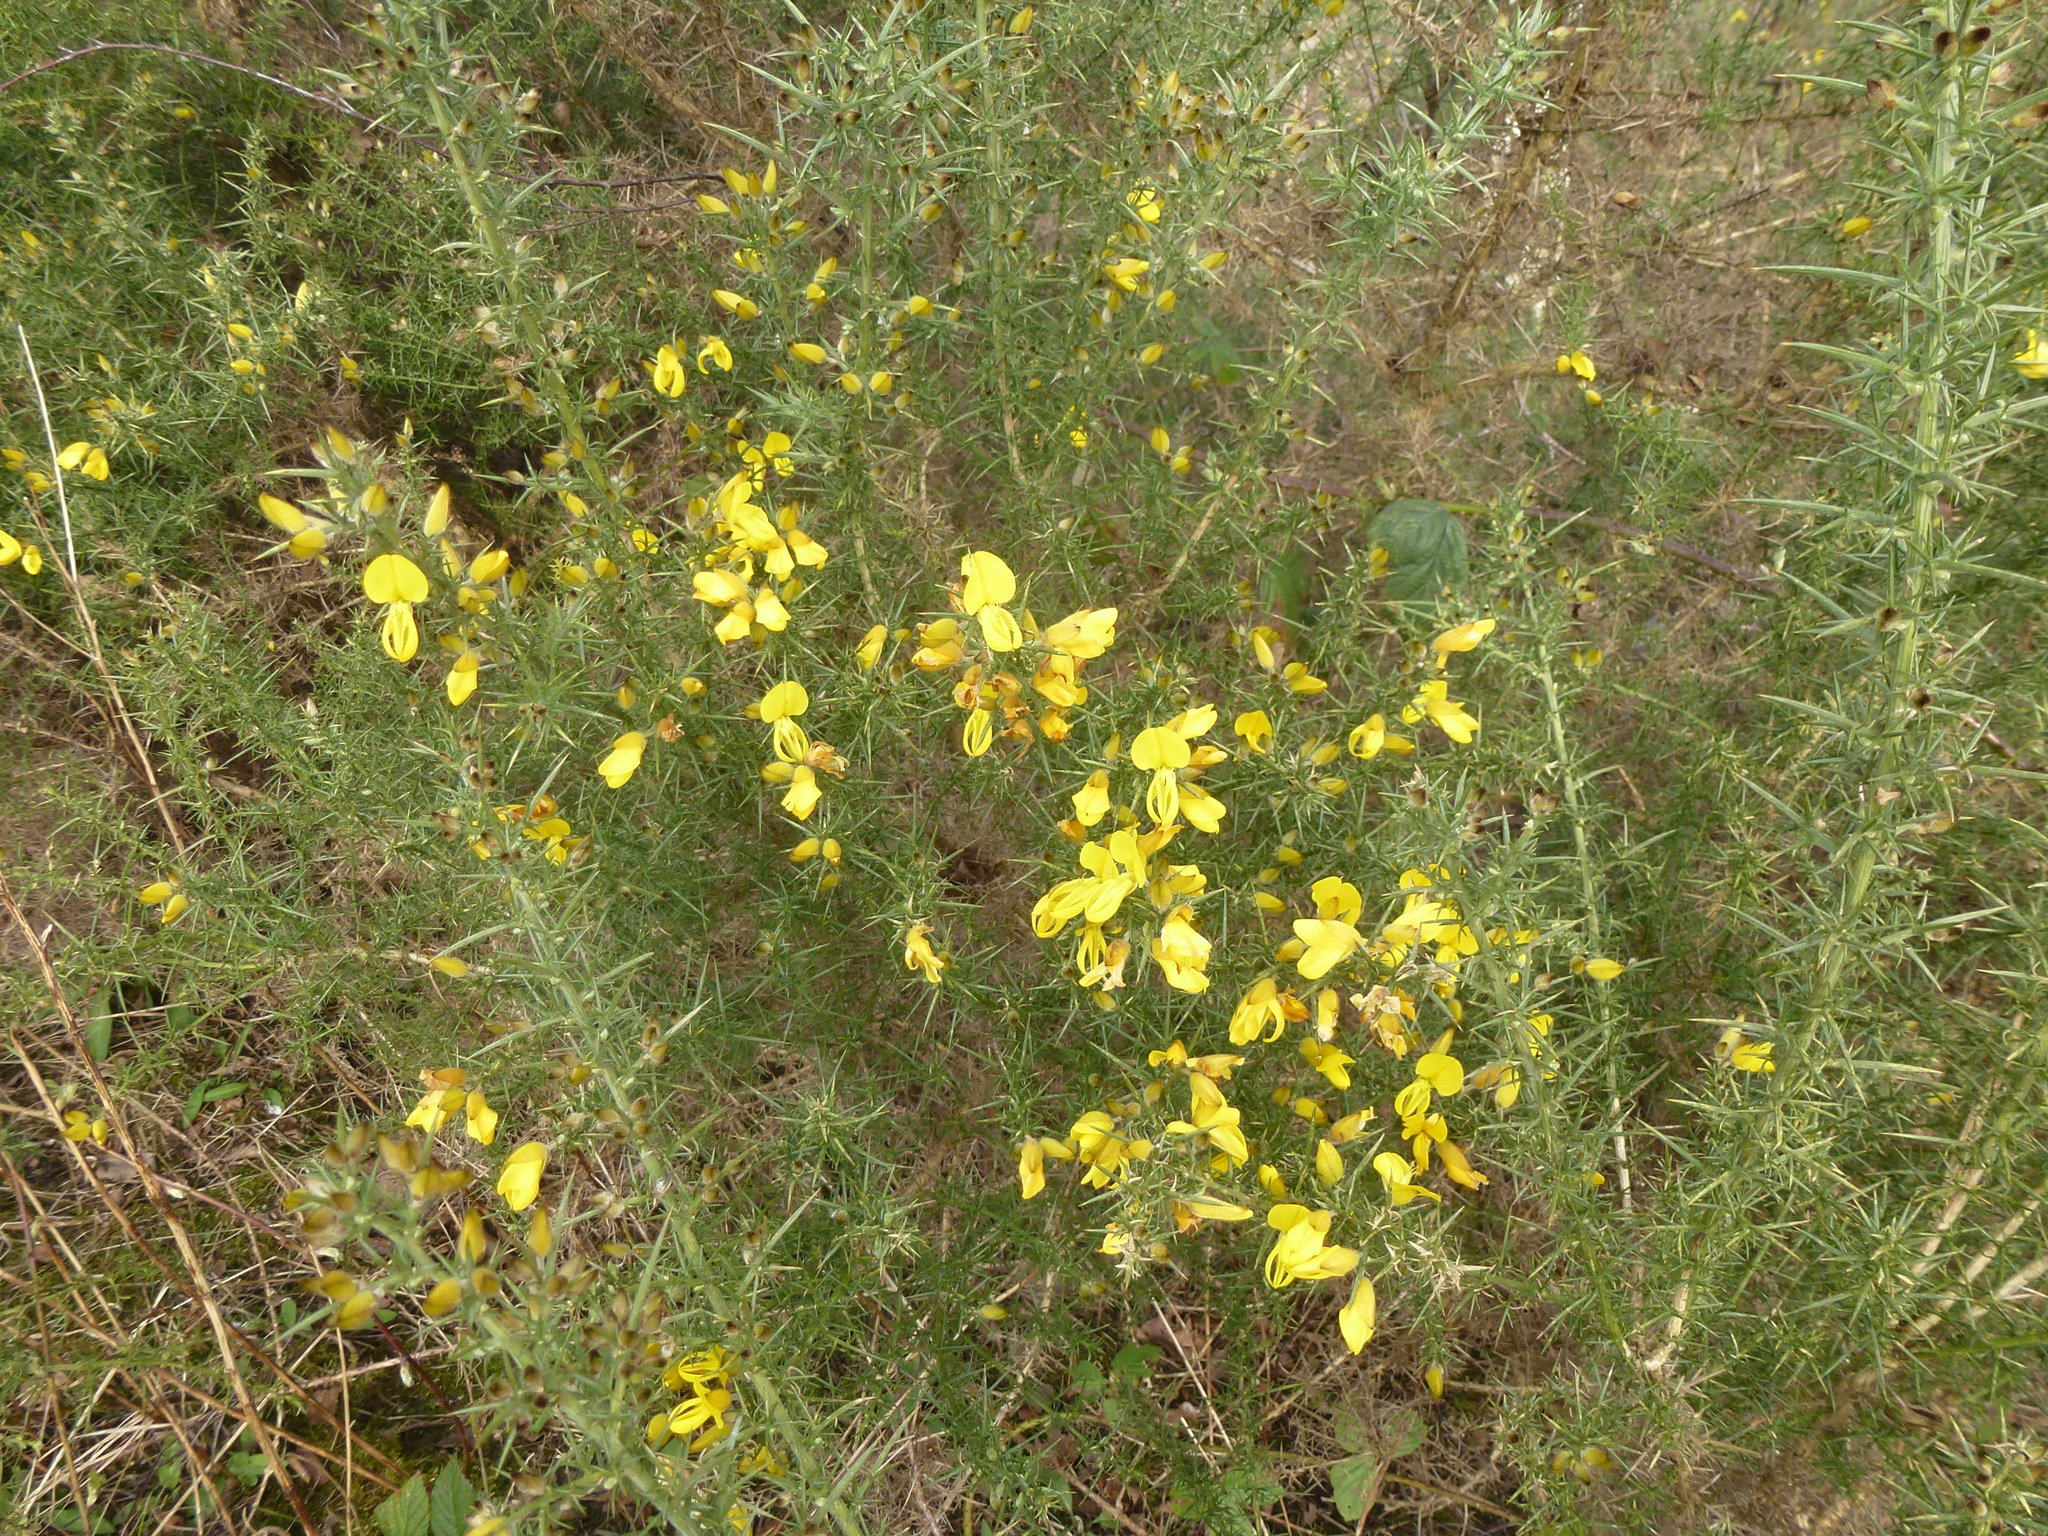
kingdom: Plantae
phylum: Tracheophyta
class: Magnoliopsida
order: Fabales
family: Fabaceae
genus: Ulex
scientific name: Ulex europaeus
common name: Common gorse
